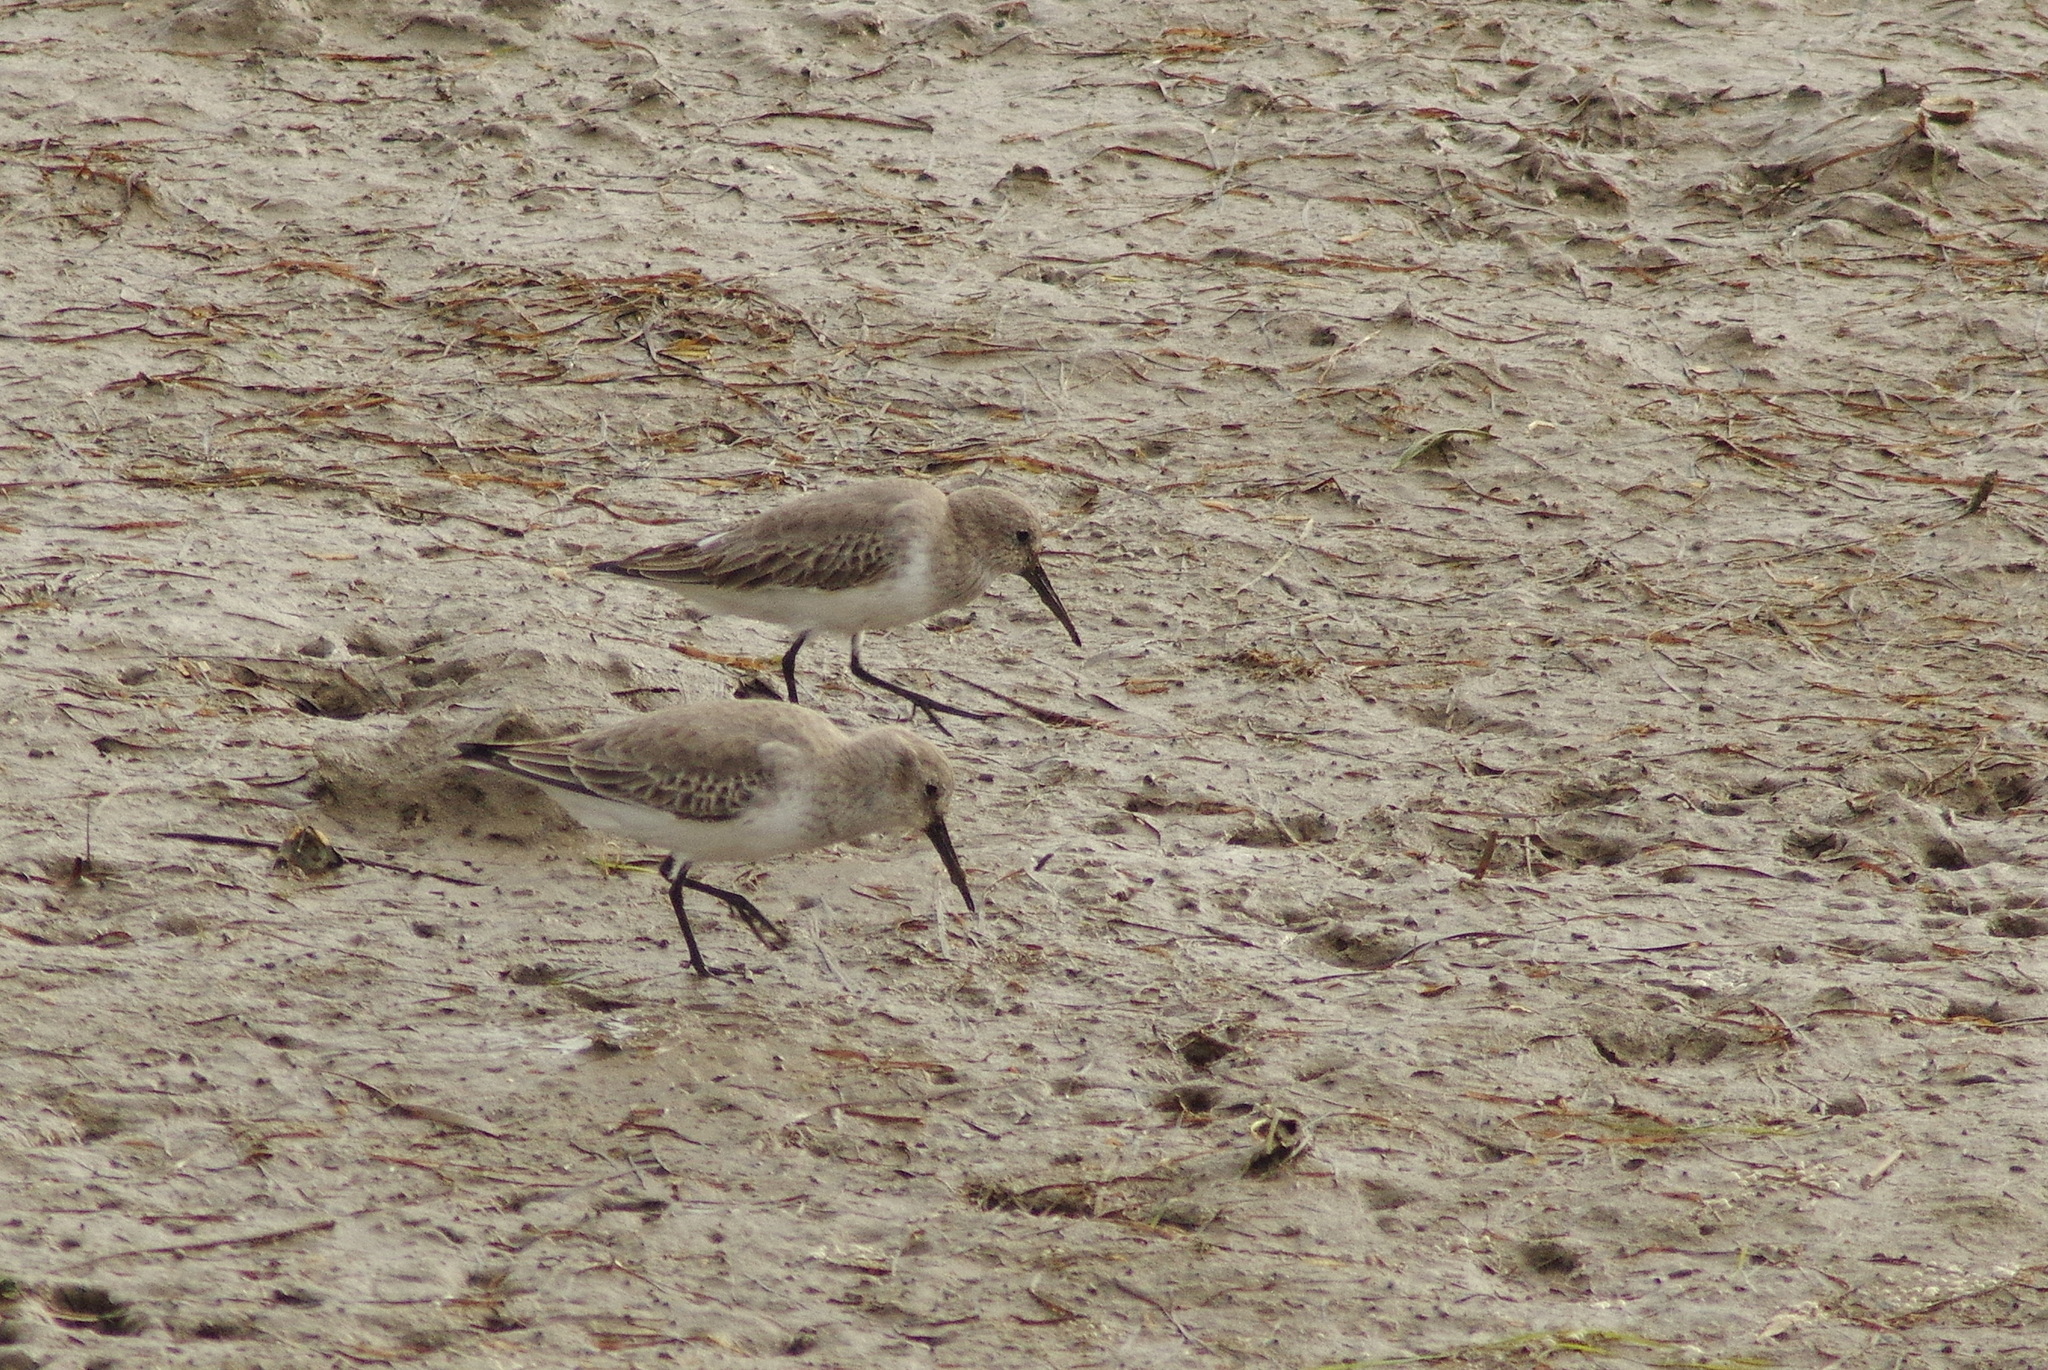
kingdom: Animalia
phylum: Chordata
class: Aves
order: Charadriiformes
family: Scolopacidae
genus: Calidris
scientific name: Calidris alpina
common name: Dunlin
